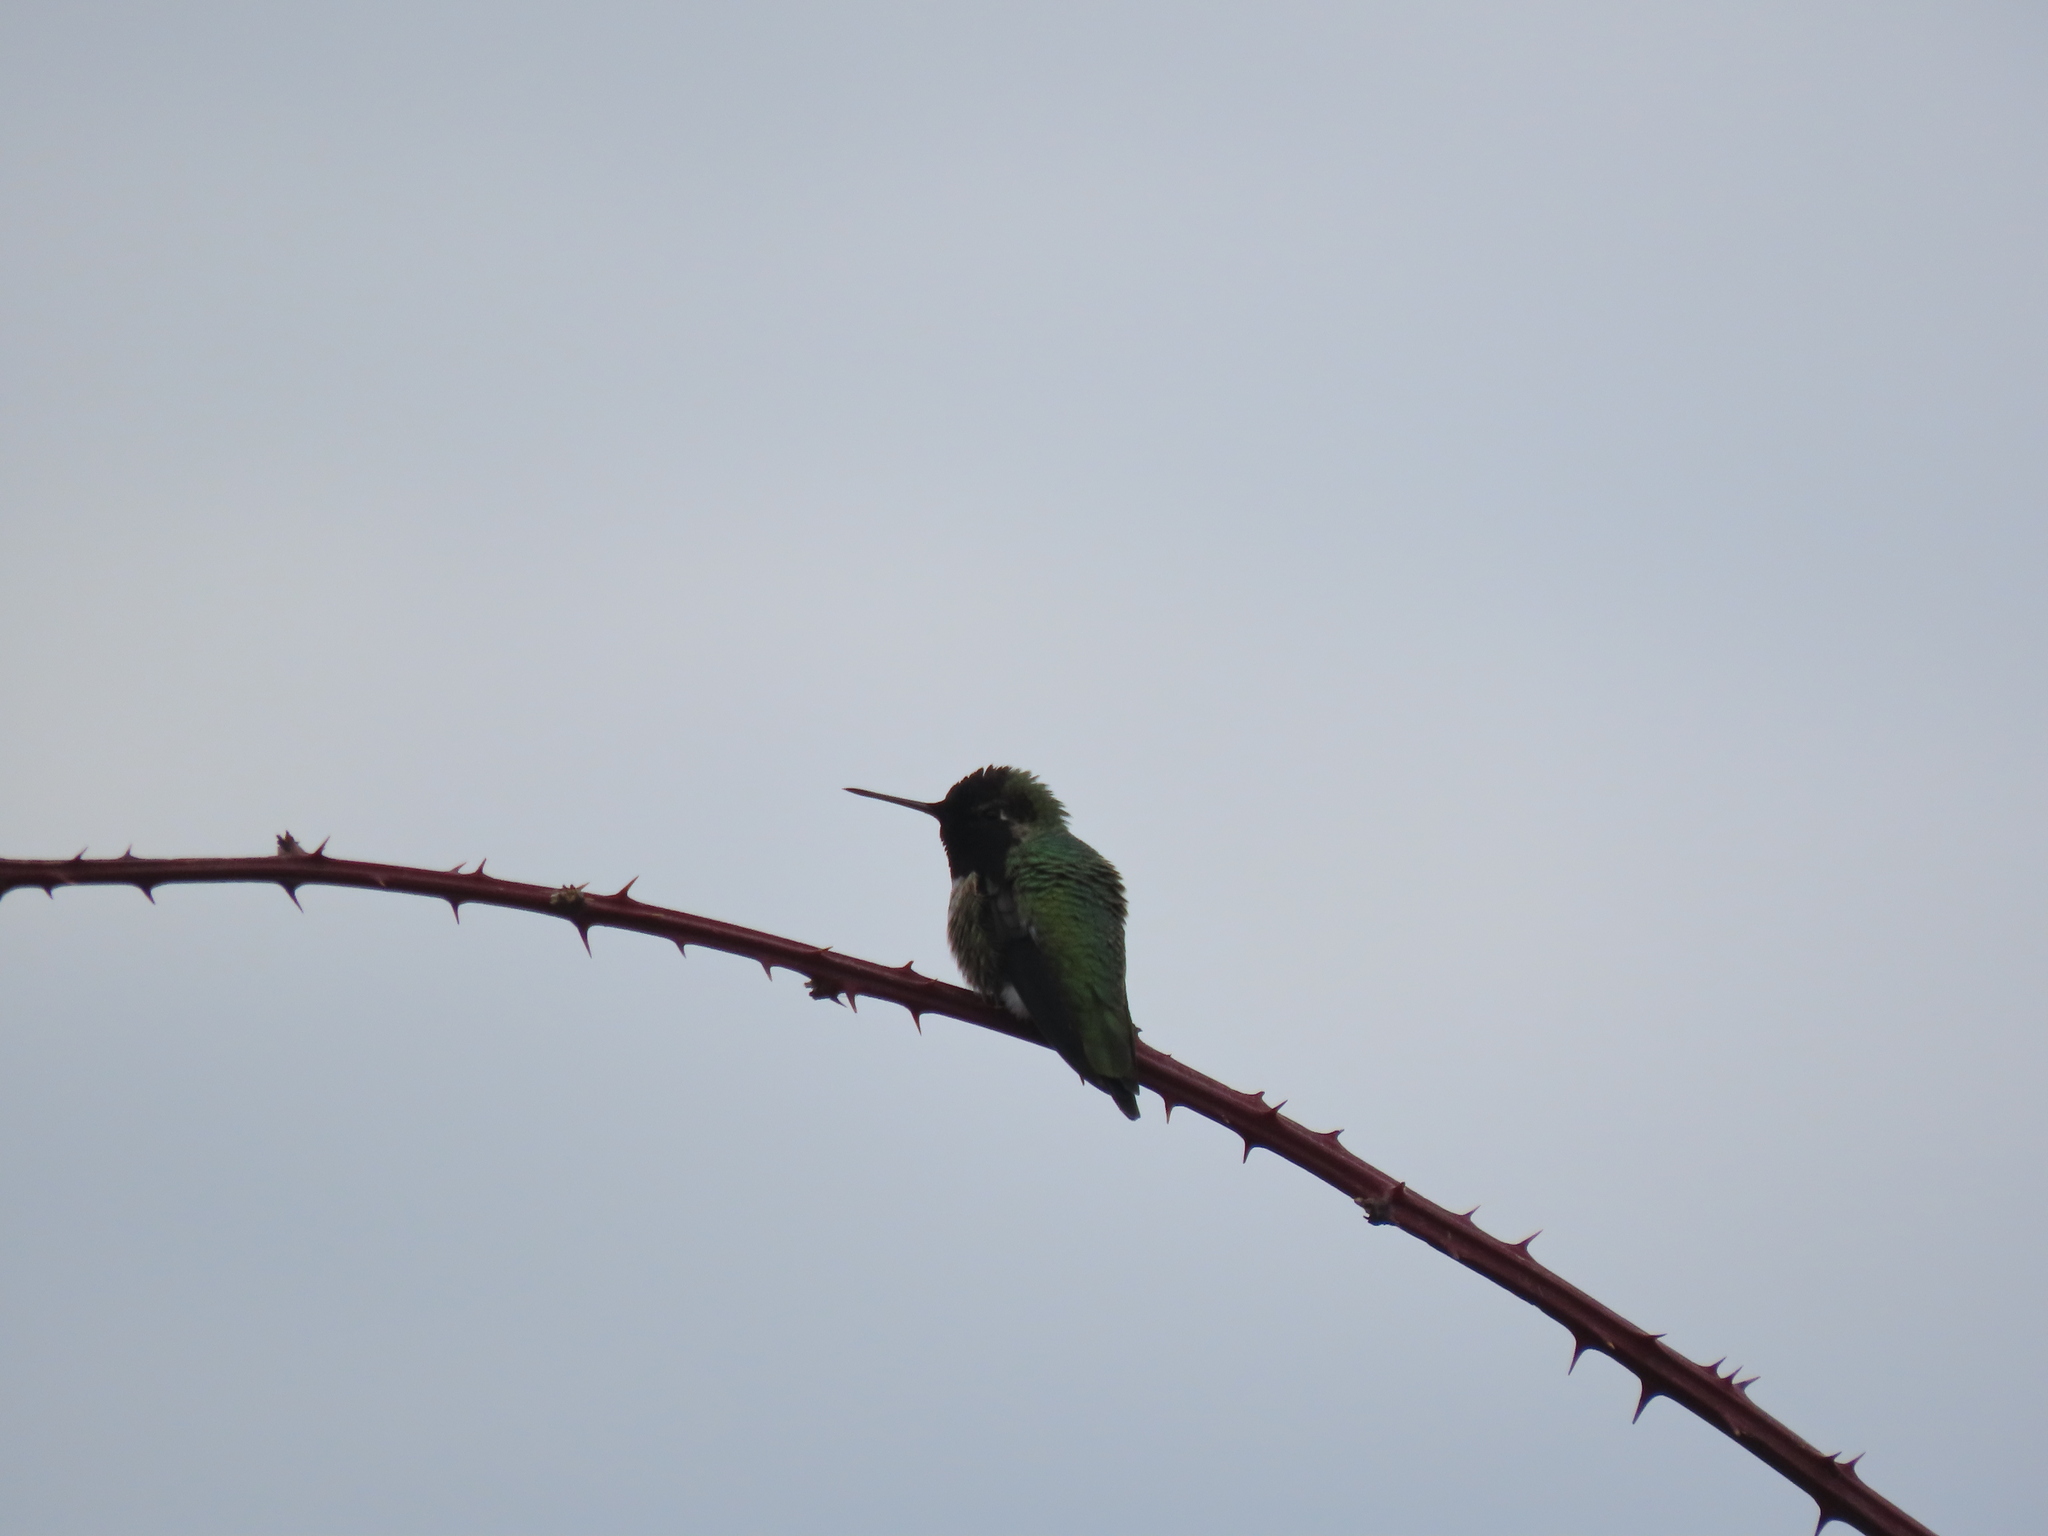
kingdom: Animalia
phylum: Chordata
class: Aves
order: Apodiformes
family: Trochilidae
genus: Calypte
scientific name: Calypte anna
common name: Anna's hummingbird
